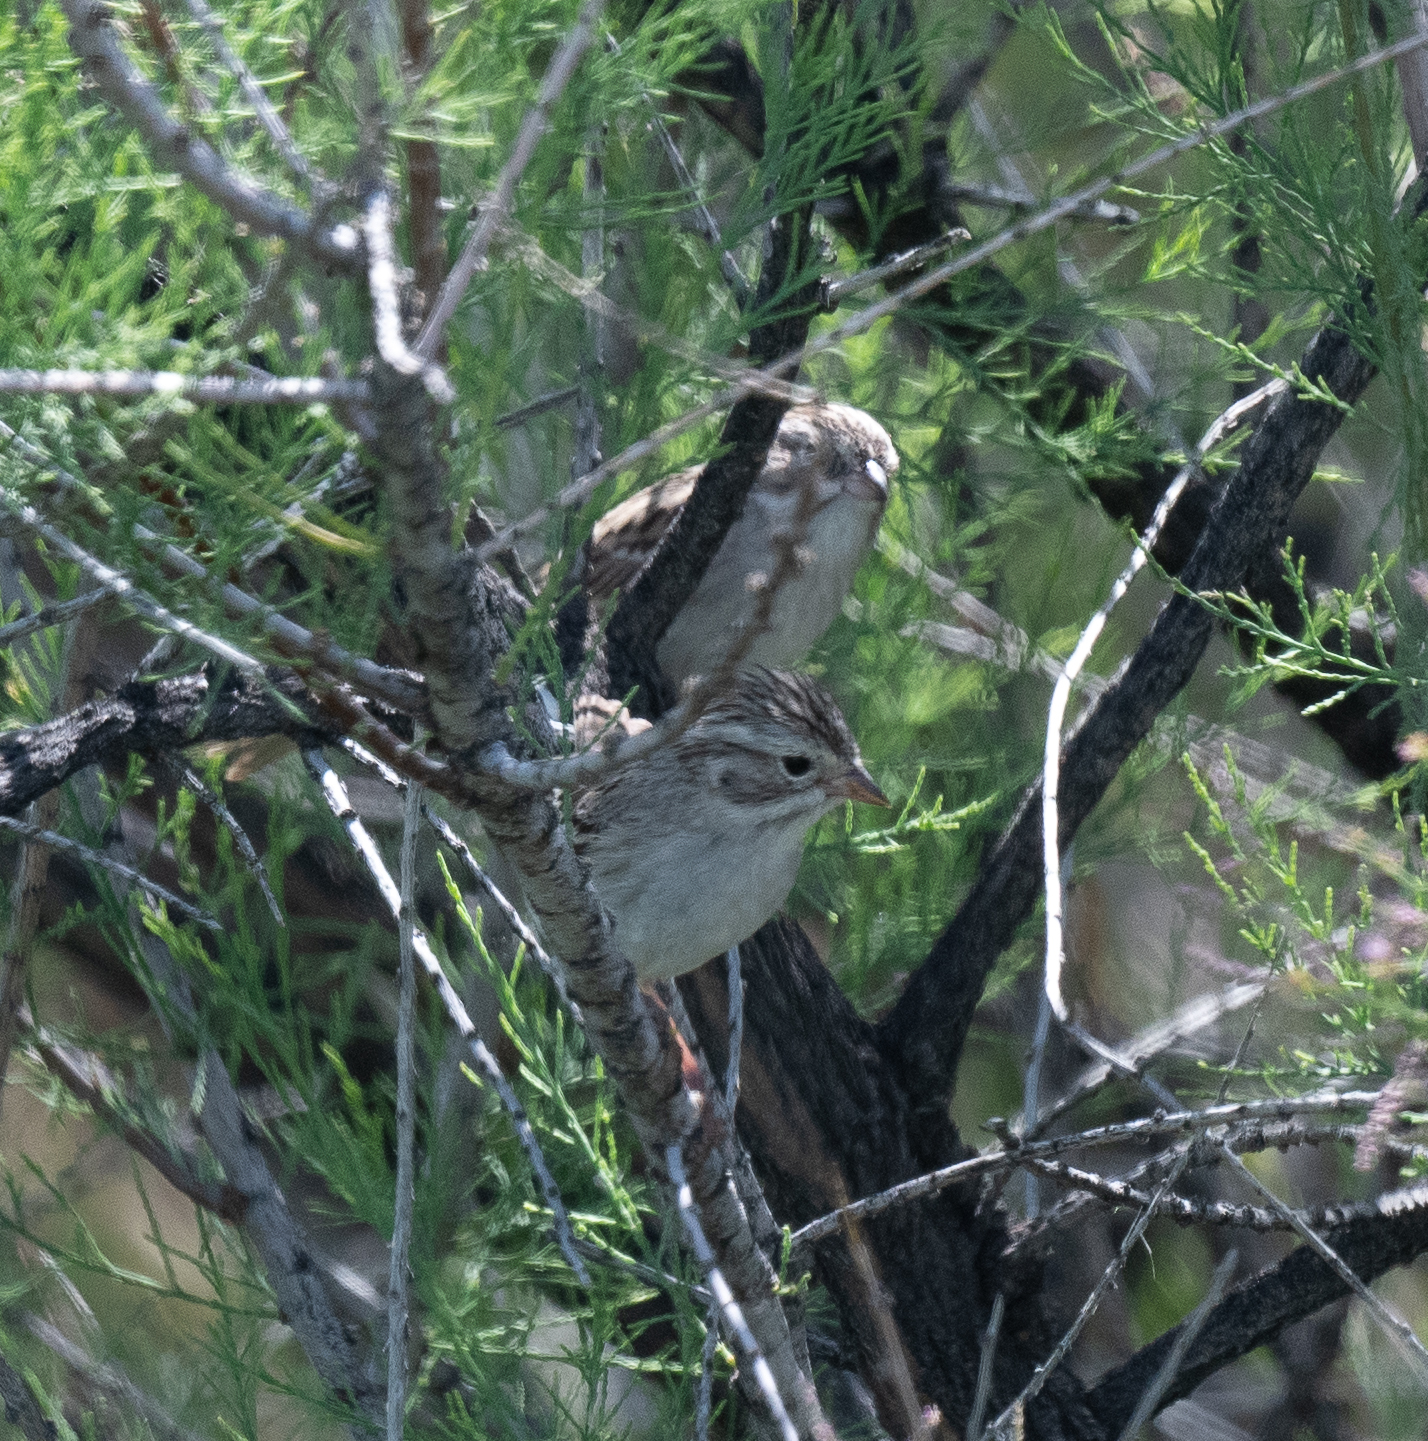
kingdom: Animalia
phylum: Chordata
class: Aves
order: Passeriformes
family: Passerellidae
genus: Spizella
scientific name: Spizella breweri
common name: Brewer's sparrow
